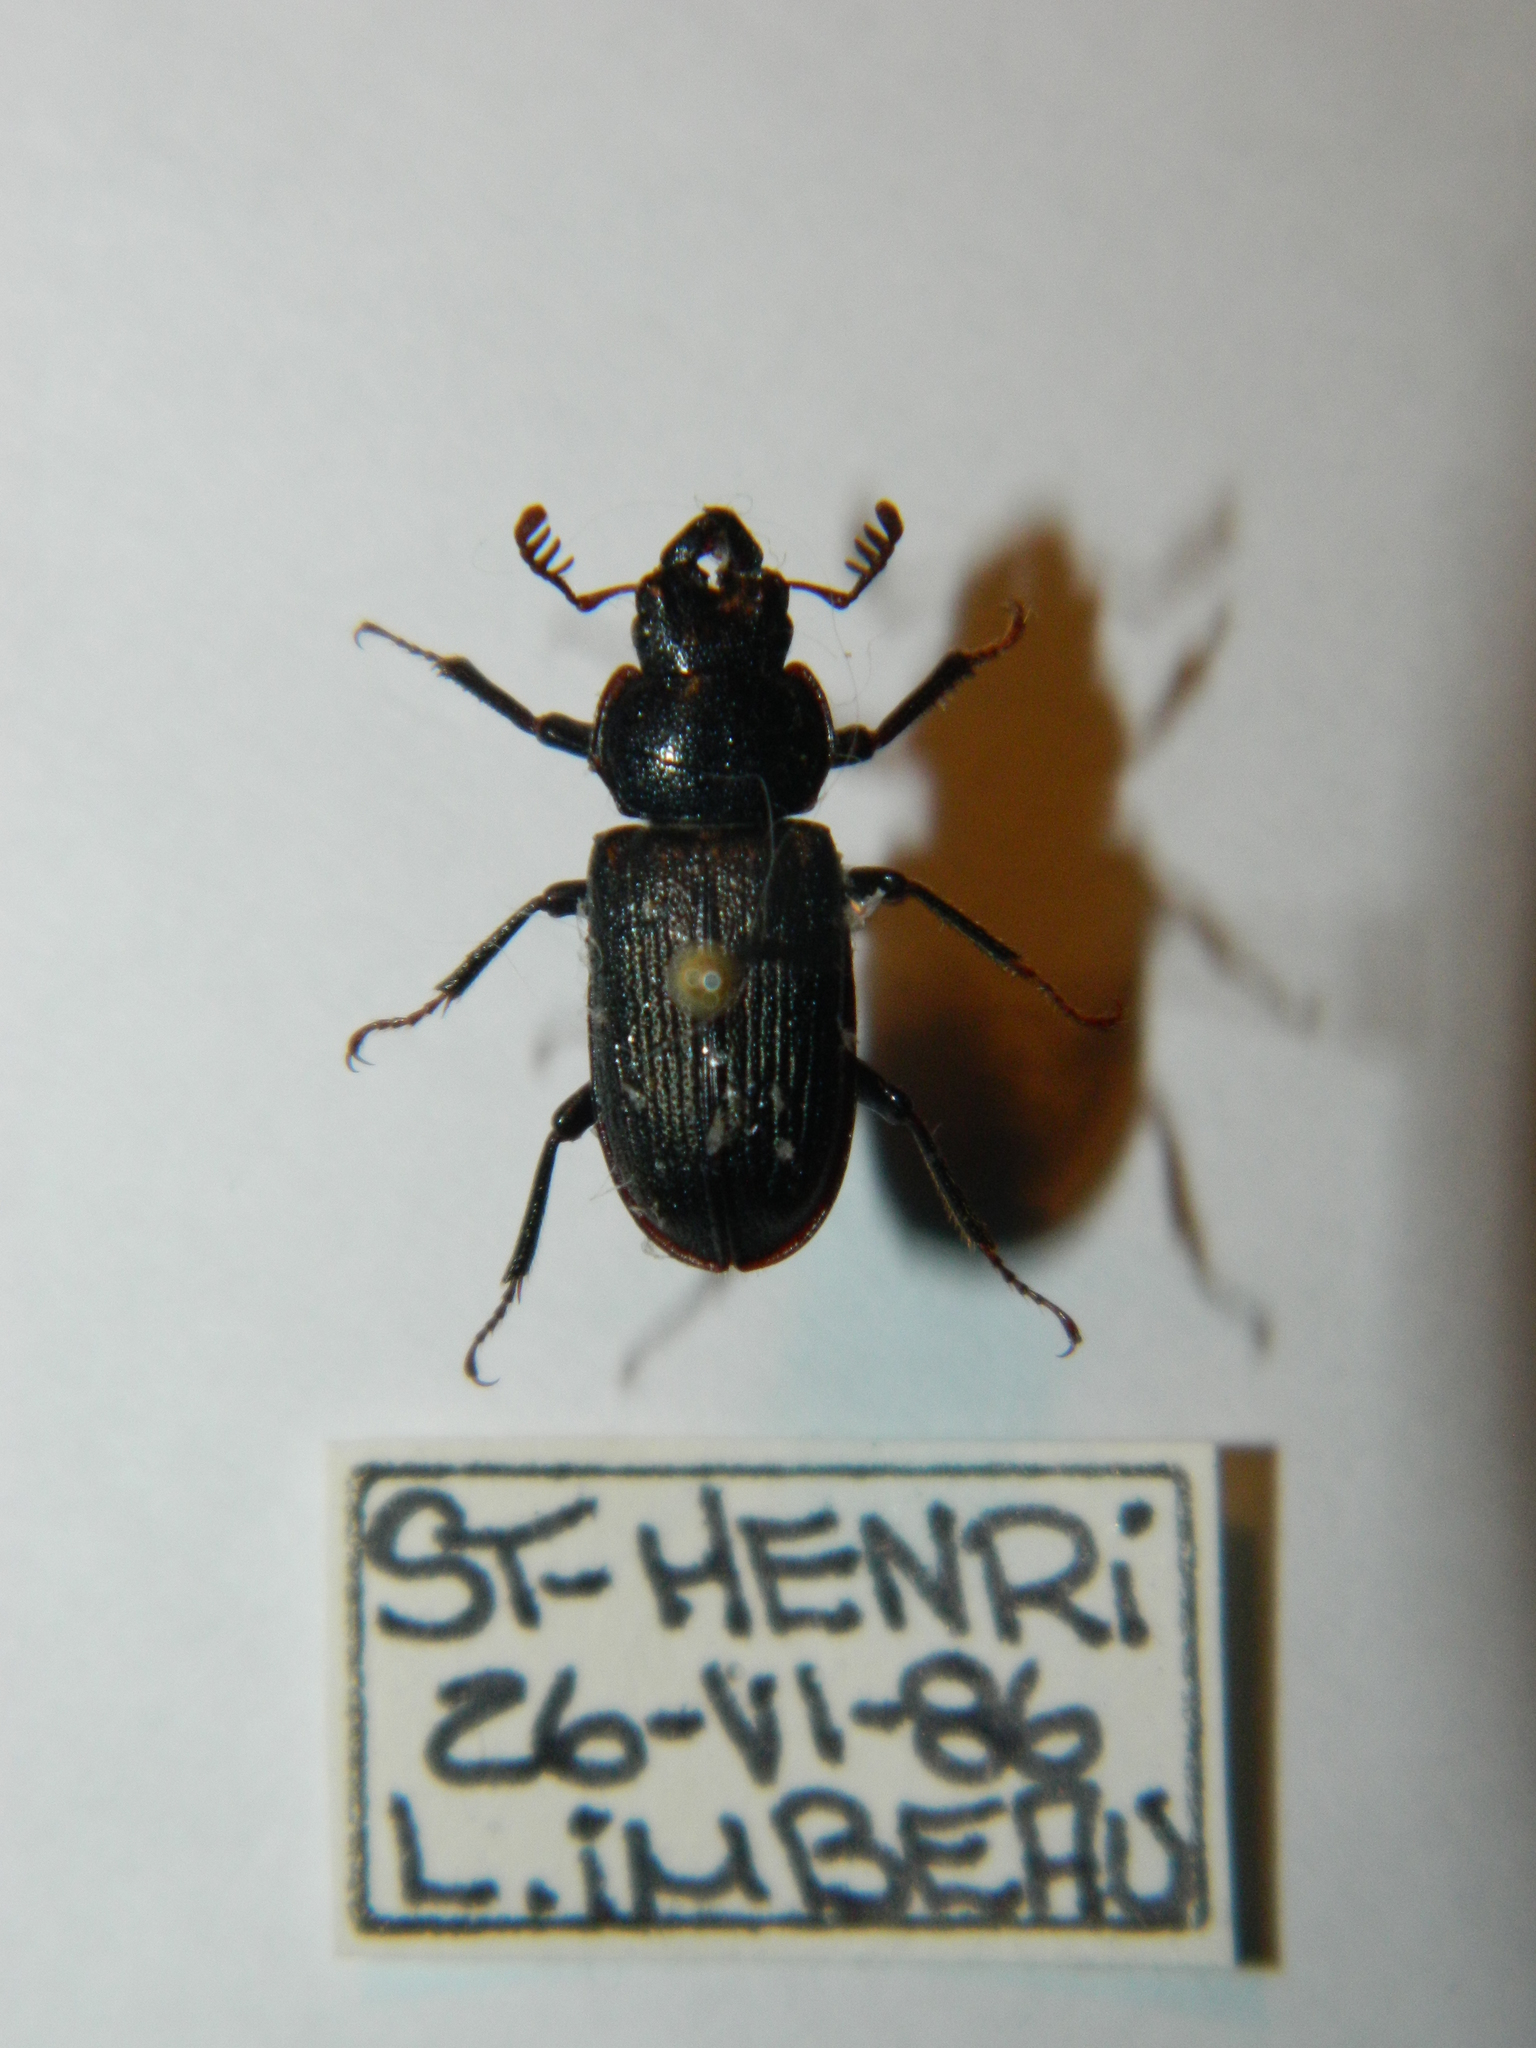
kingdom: Animalia
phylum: Arthropoda
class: Insecta
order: Coleoptera
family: Lucanidae
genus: Platycerus
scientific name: Platycerus depressus
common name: Aspen stag beetle
